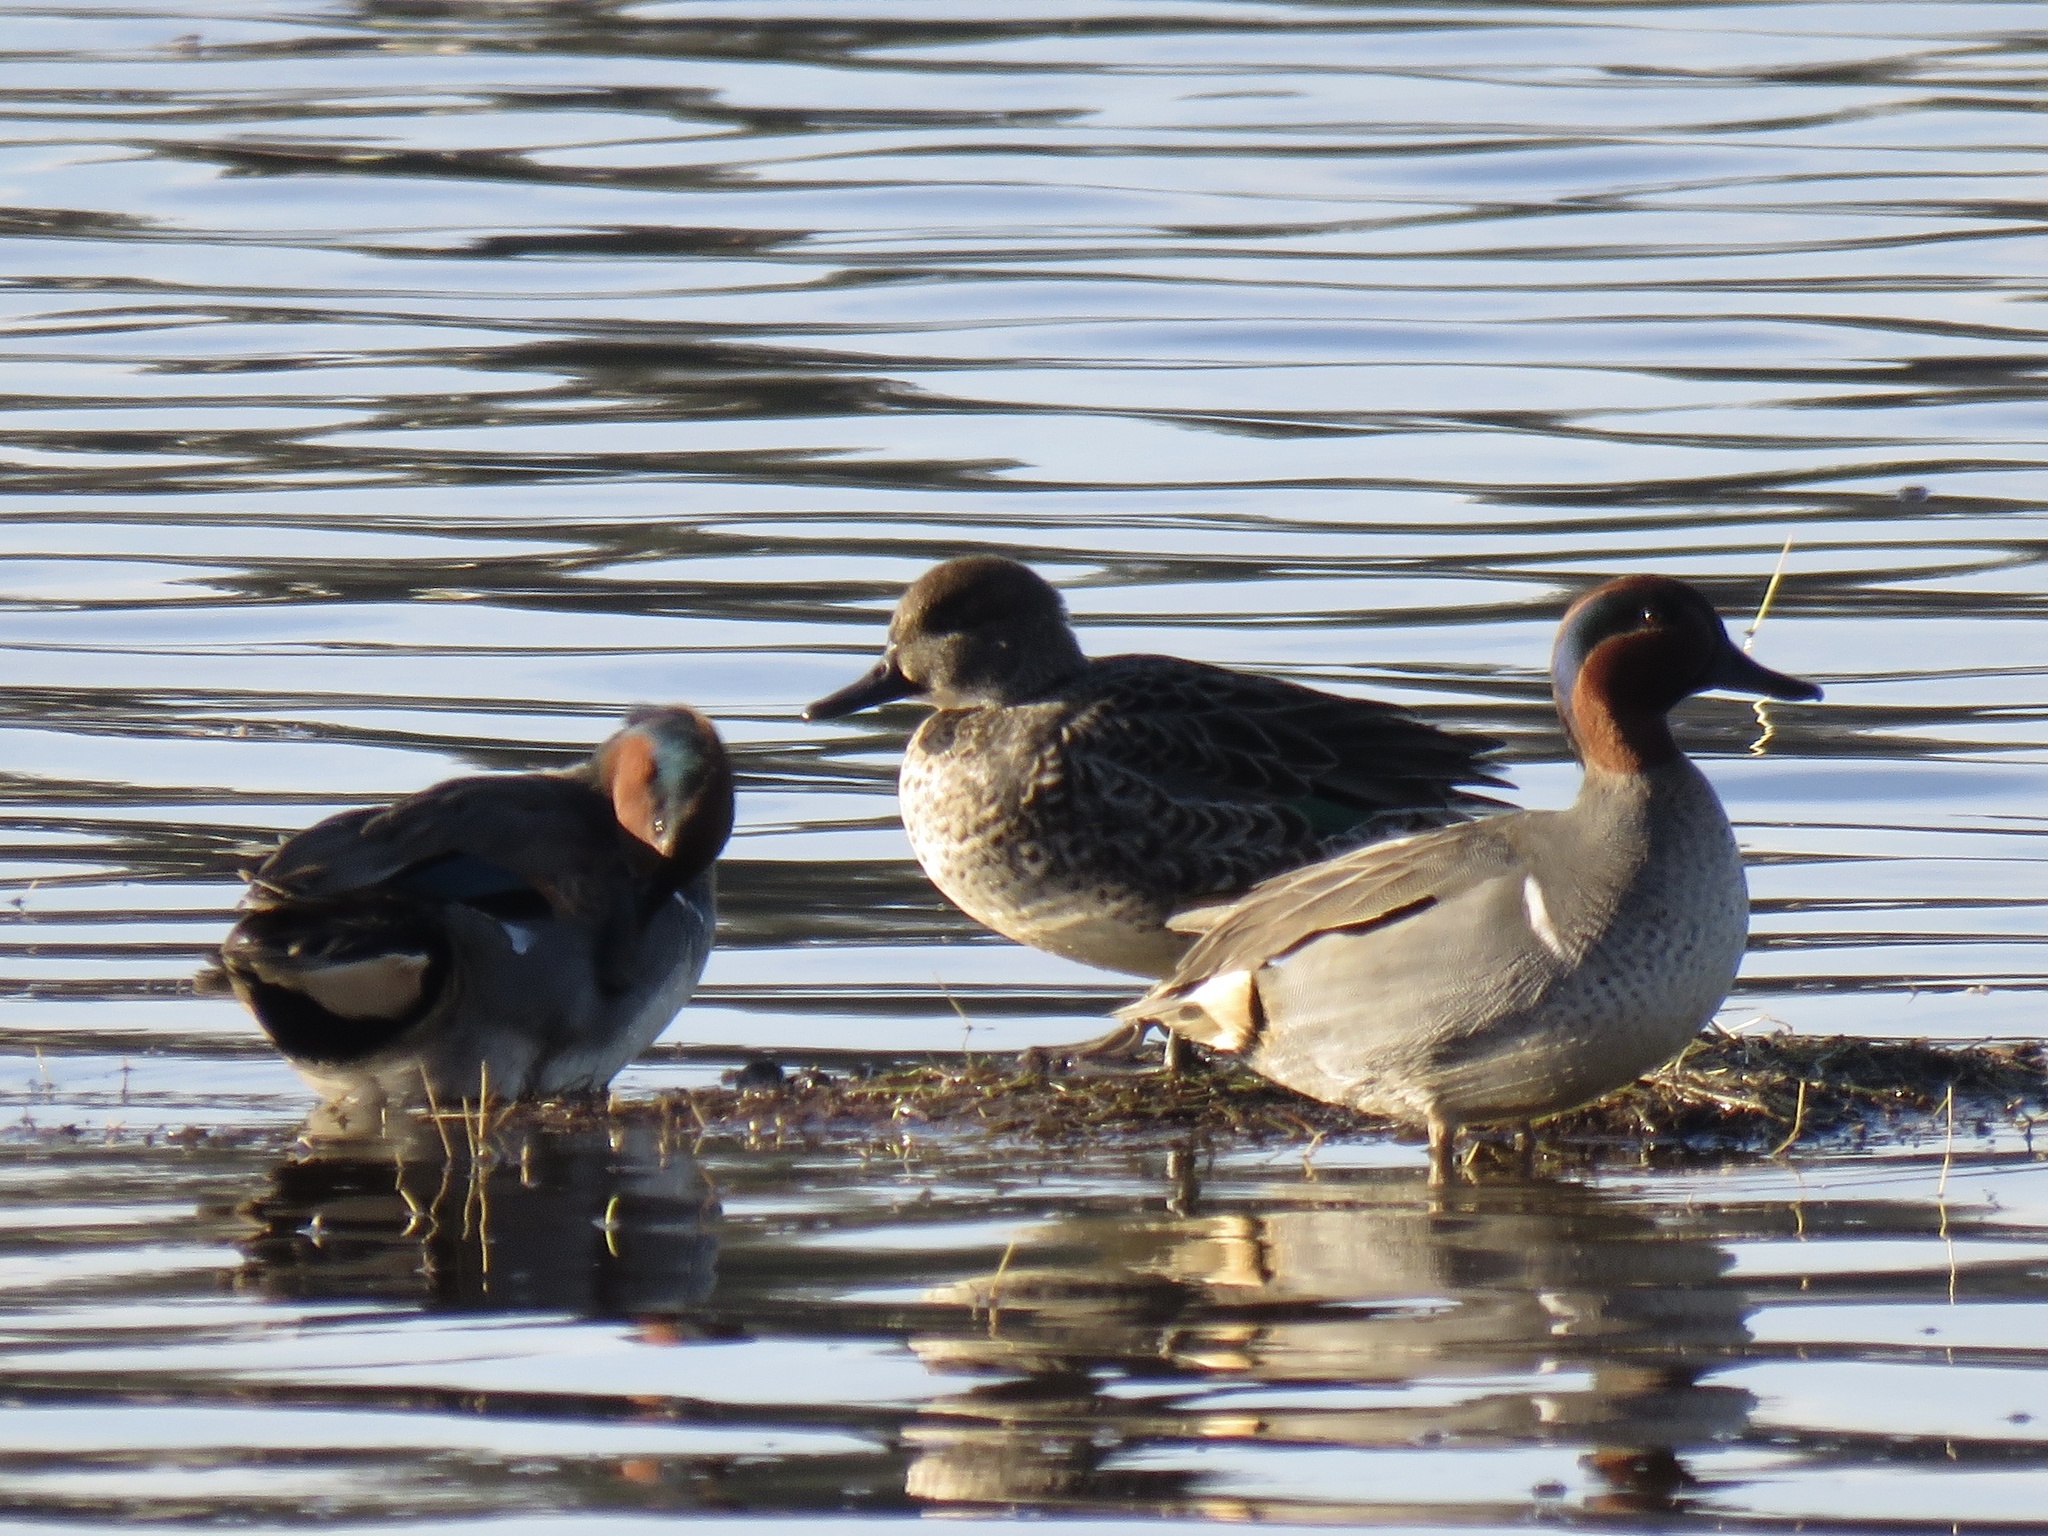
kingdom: Animalia
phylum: Chordata
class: Aves
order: Anseriformes
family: Anatidae
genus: Anas
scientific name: Anas crecca
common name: Eurasian teal
